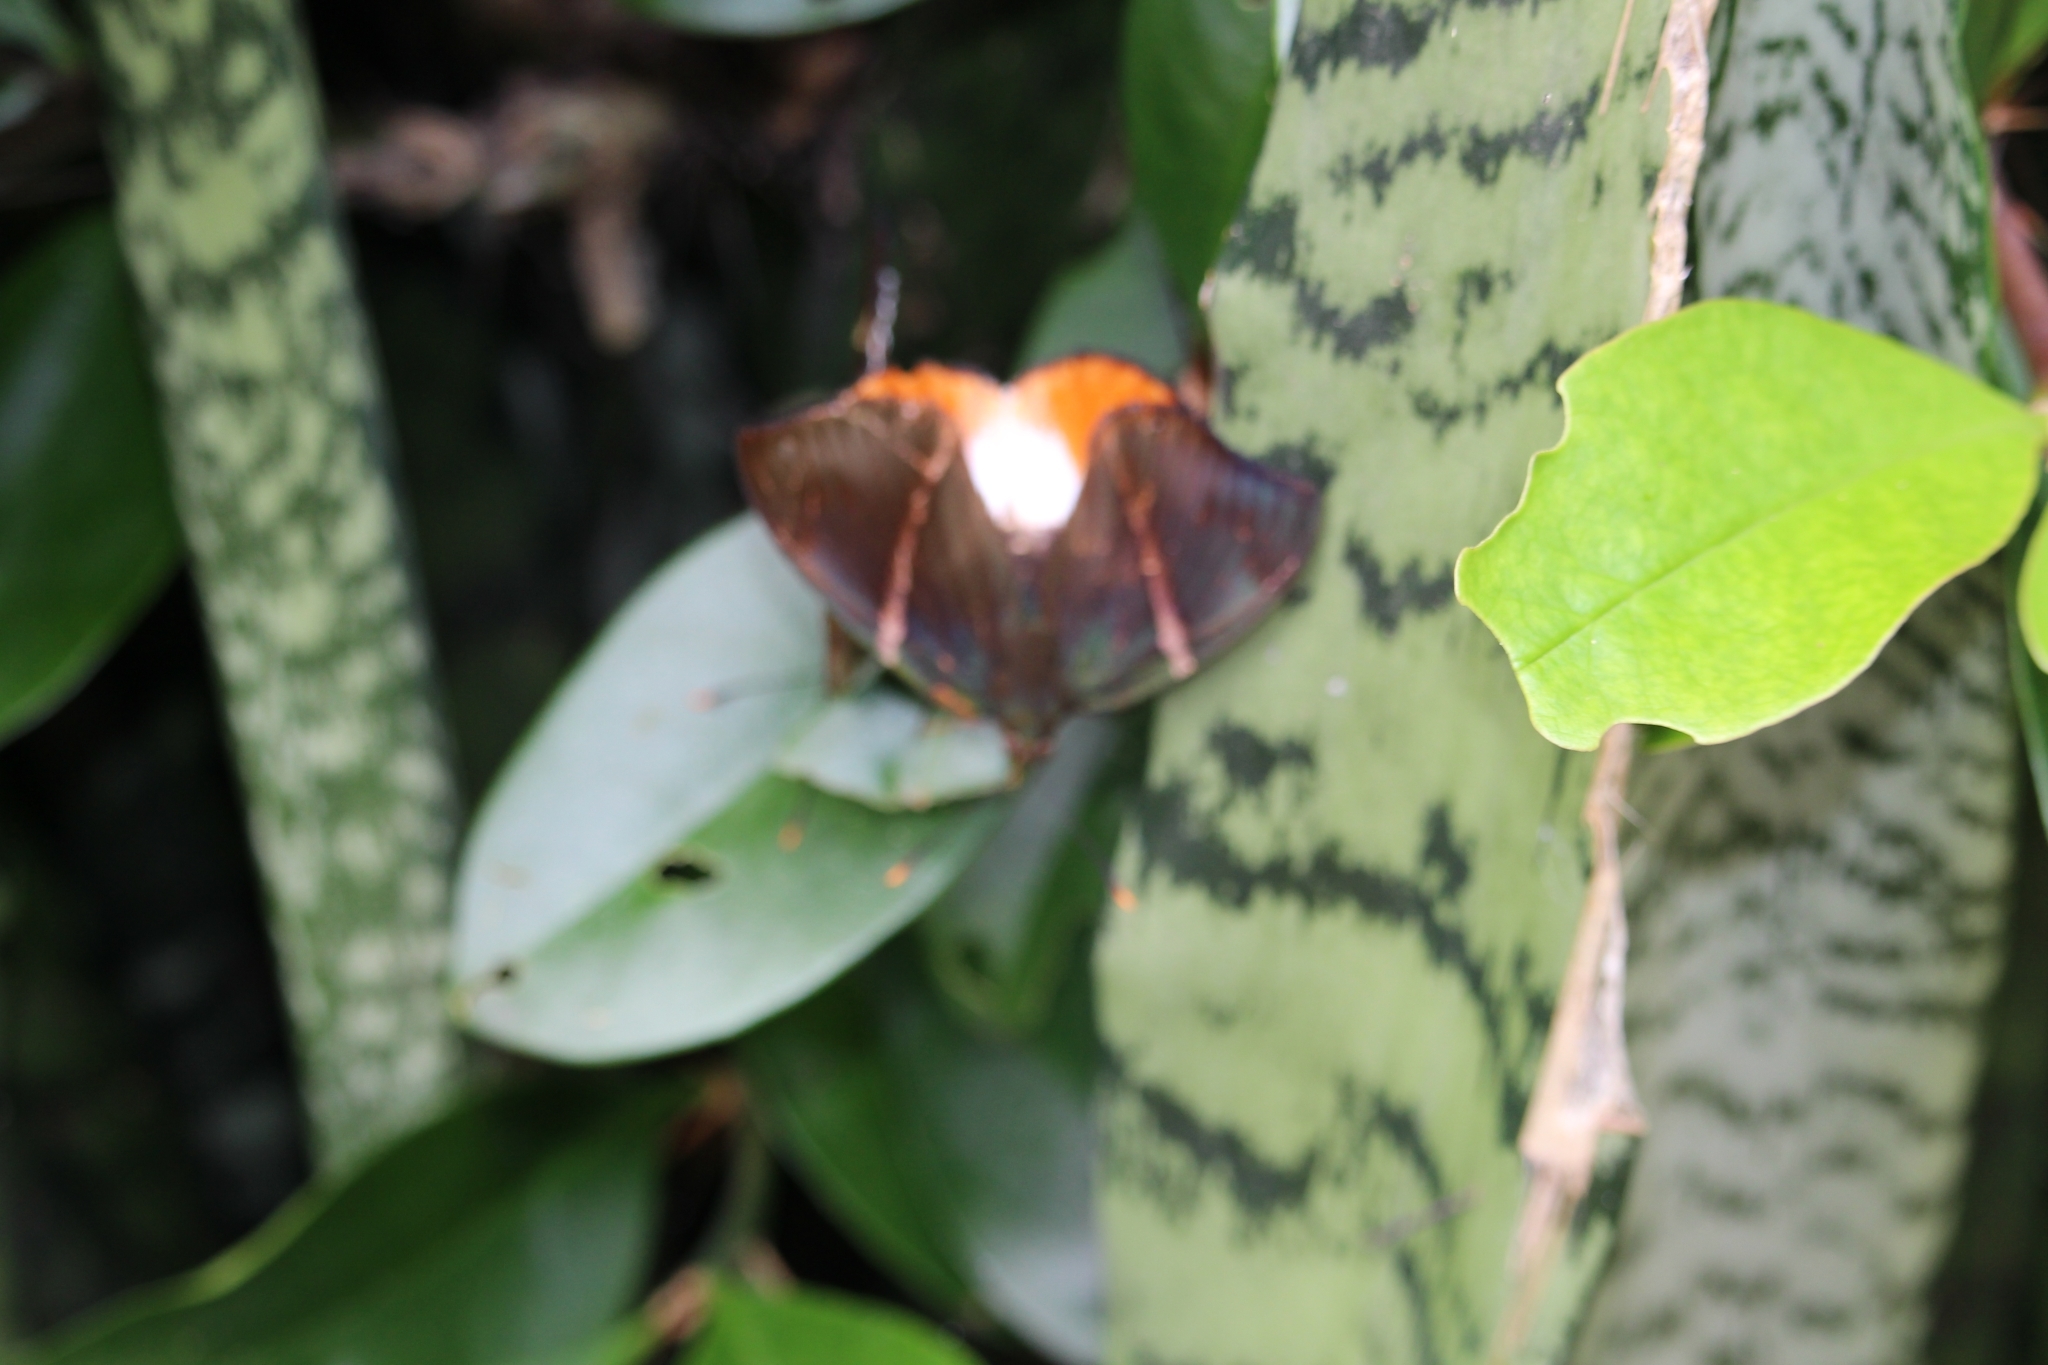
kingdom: Animalia
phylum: Arthropoda
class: Insecta
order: Lepidoptera
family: Castniidae
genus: Castniomera
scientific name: Castniomera drucei
